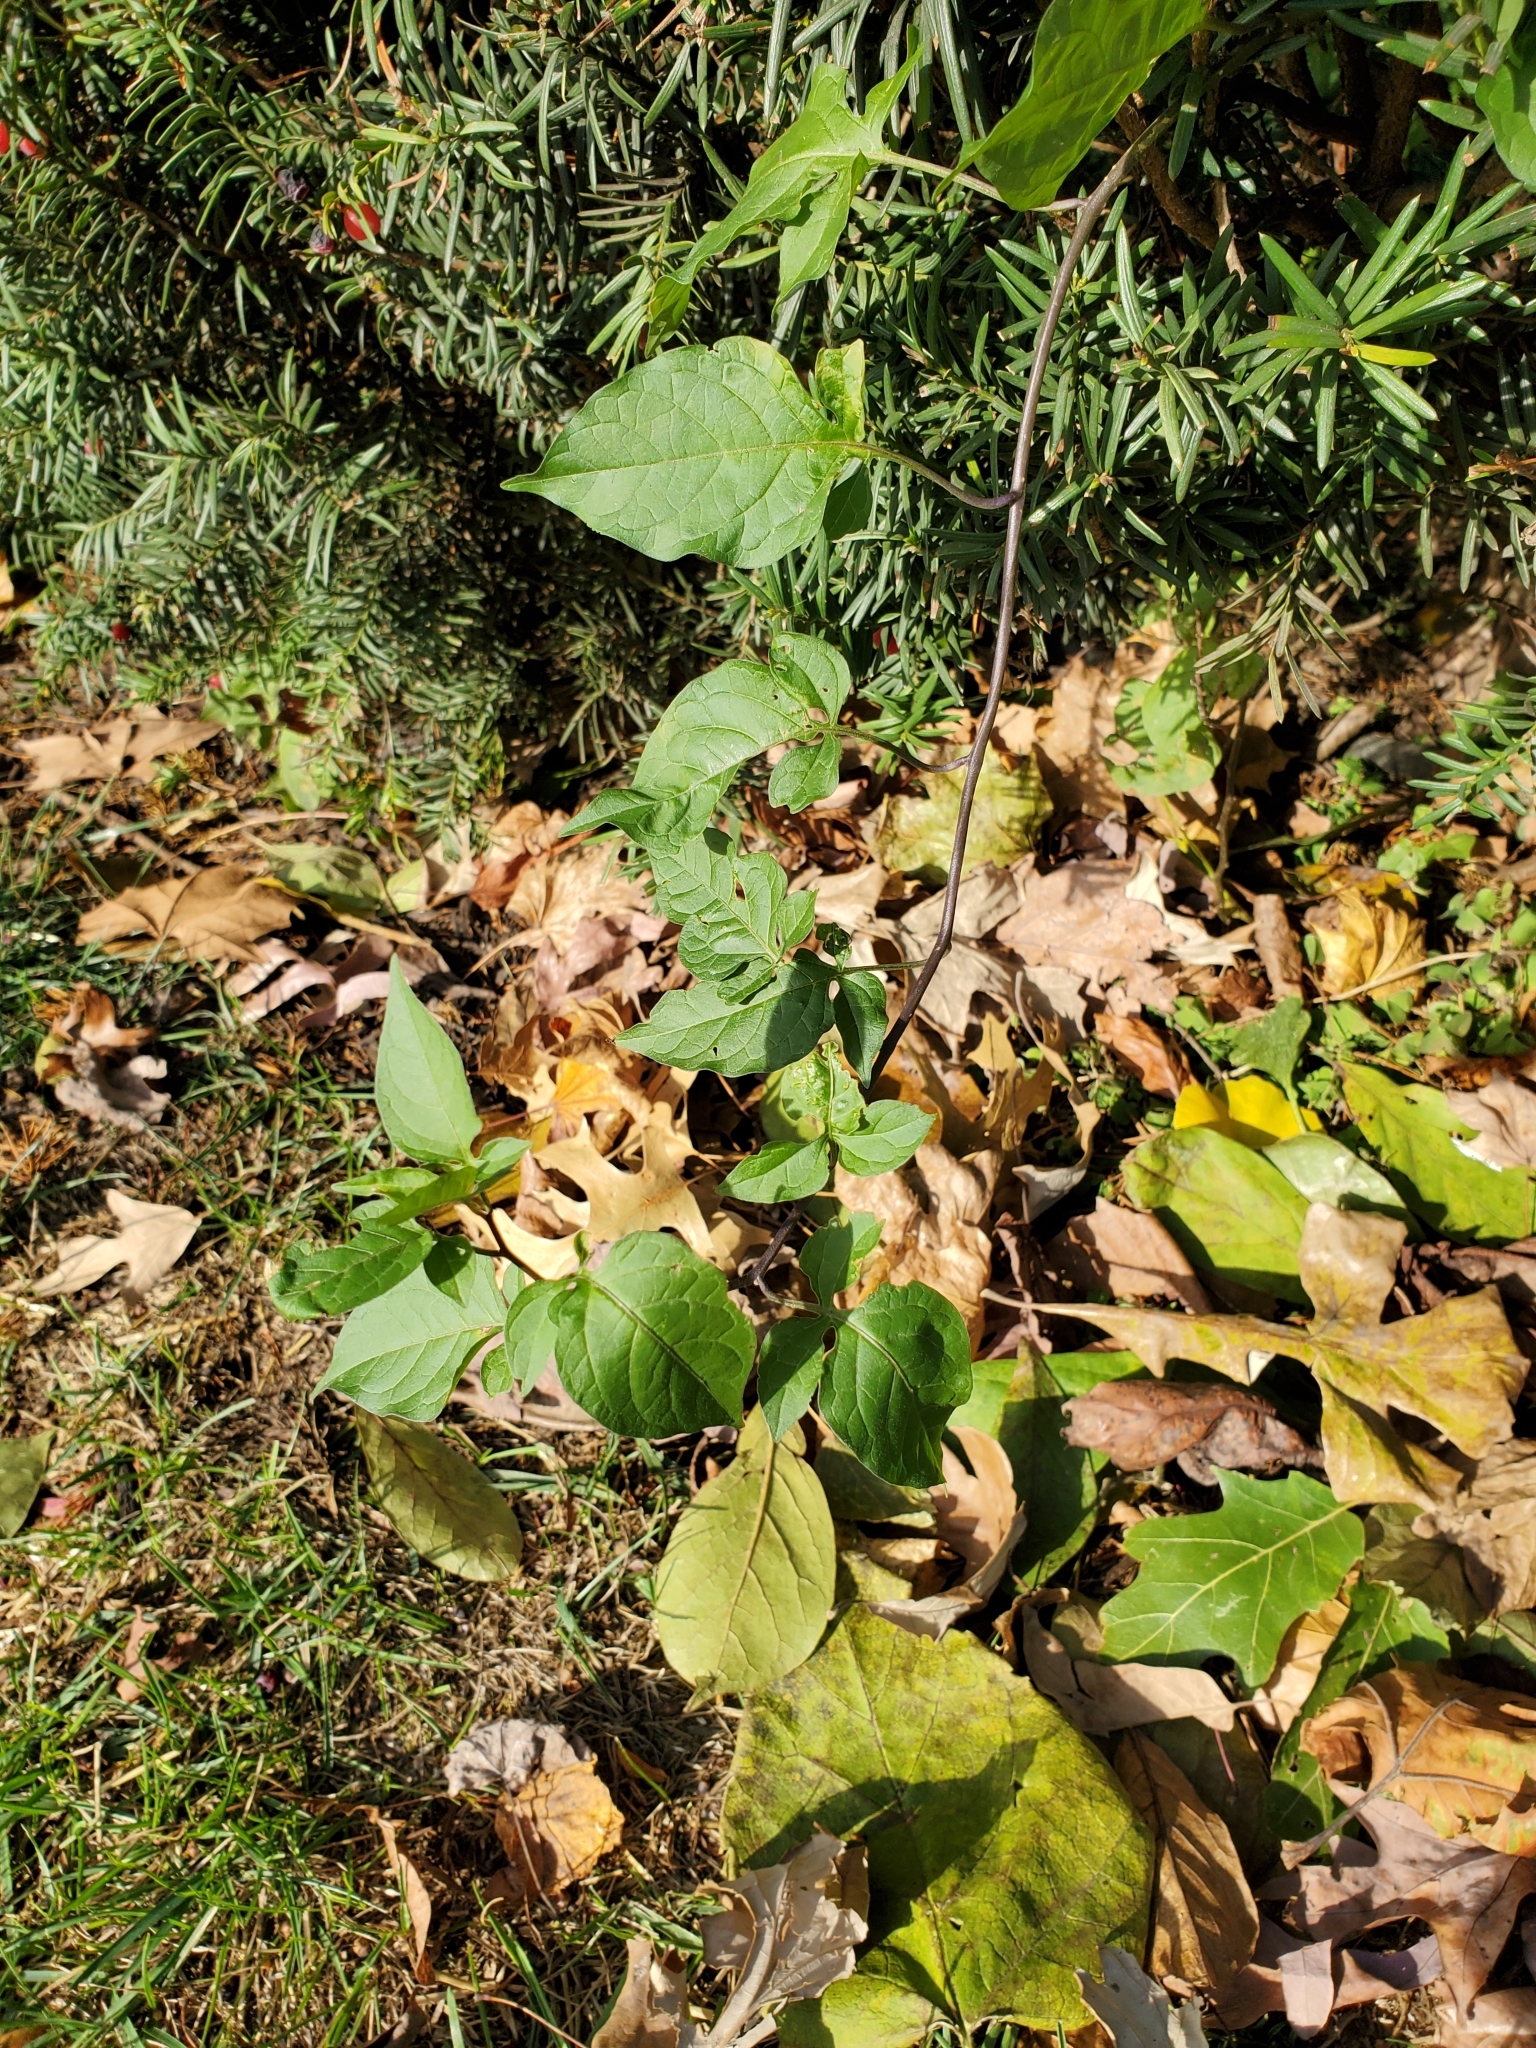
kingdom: Plantae
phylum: Tracheophyta
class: Magnoliopsida
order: Solanales
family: Solanaceae
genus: Solanum
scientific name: Solanum dulcamara
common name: Climbing nightshade
